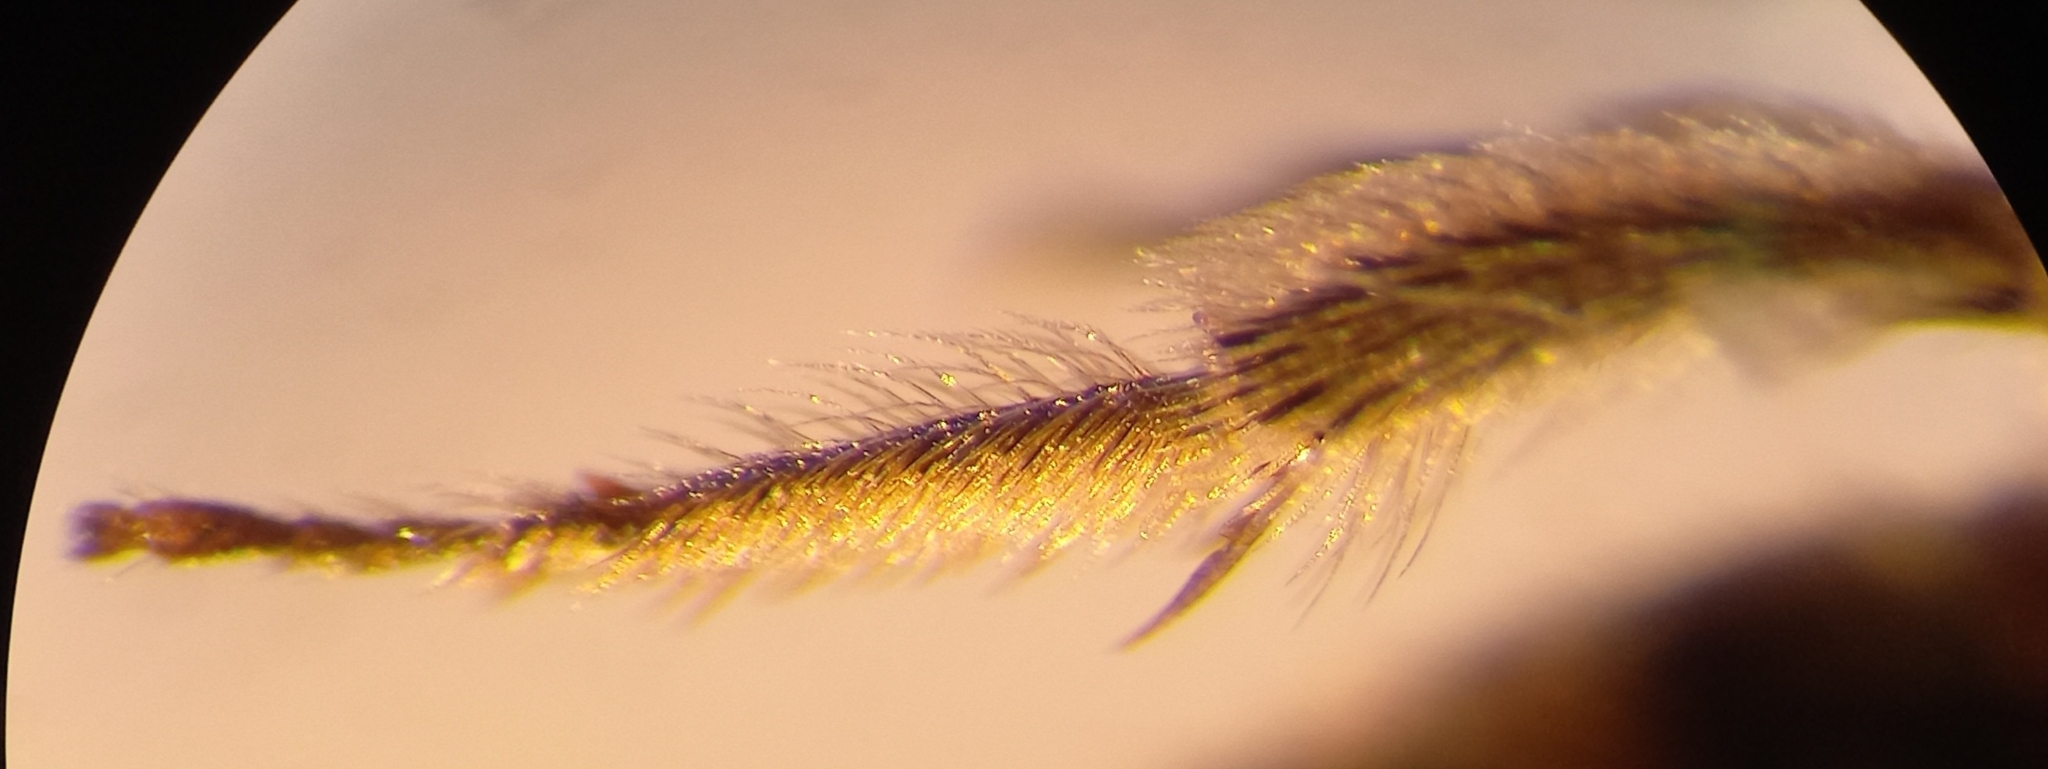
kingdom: Animalia
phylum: Arthropoda
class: Insecta
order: Hymenoptera
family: Halictidae
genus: Lasioglossum
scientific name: Lasioglossum laticeps
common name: Broad-faced furrow bee
